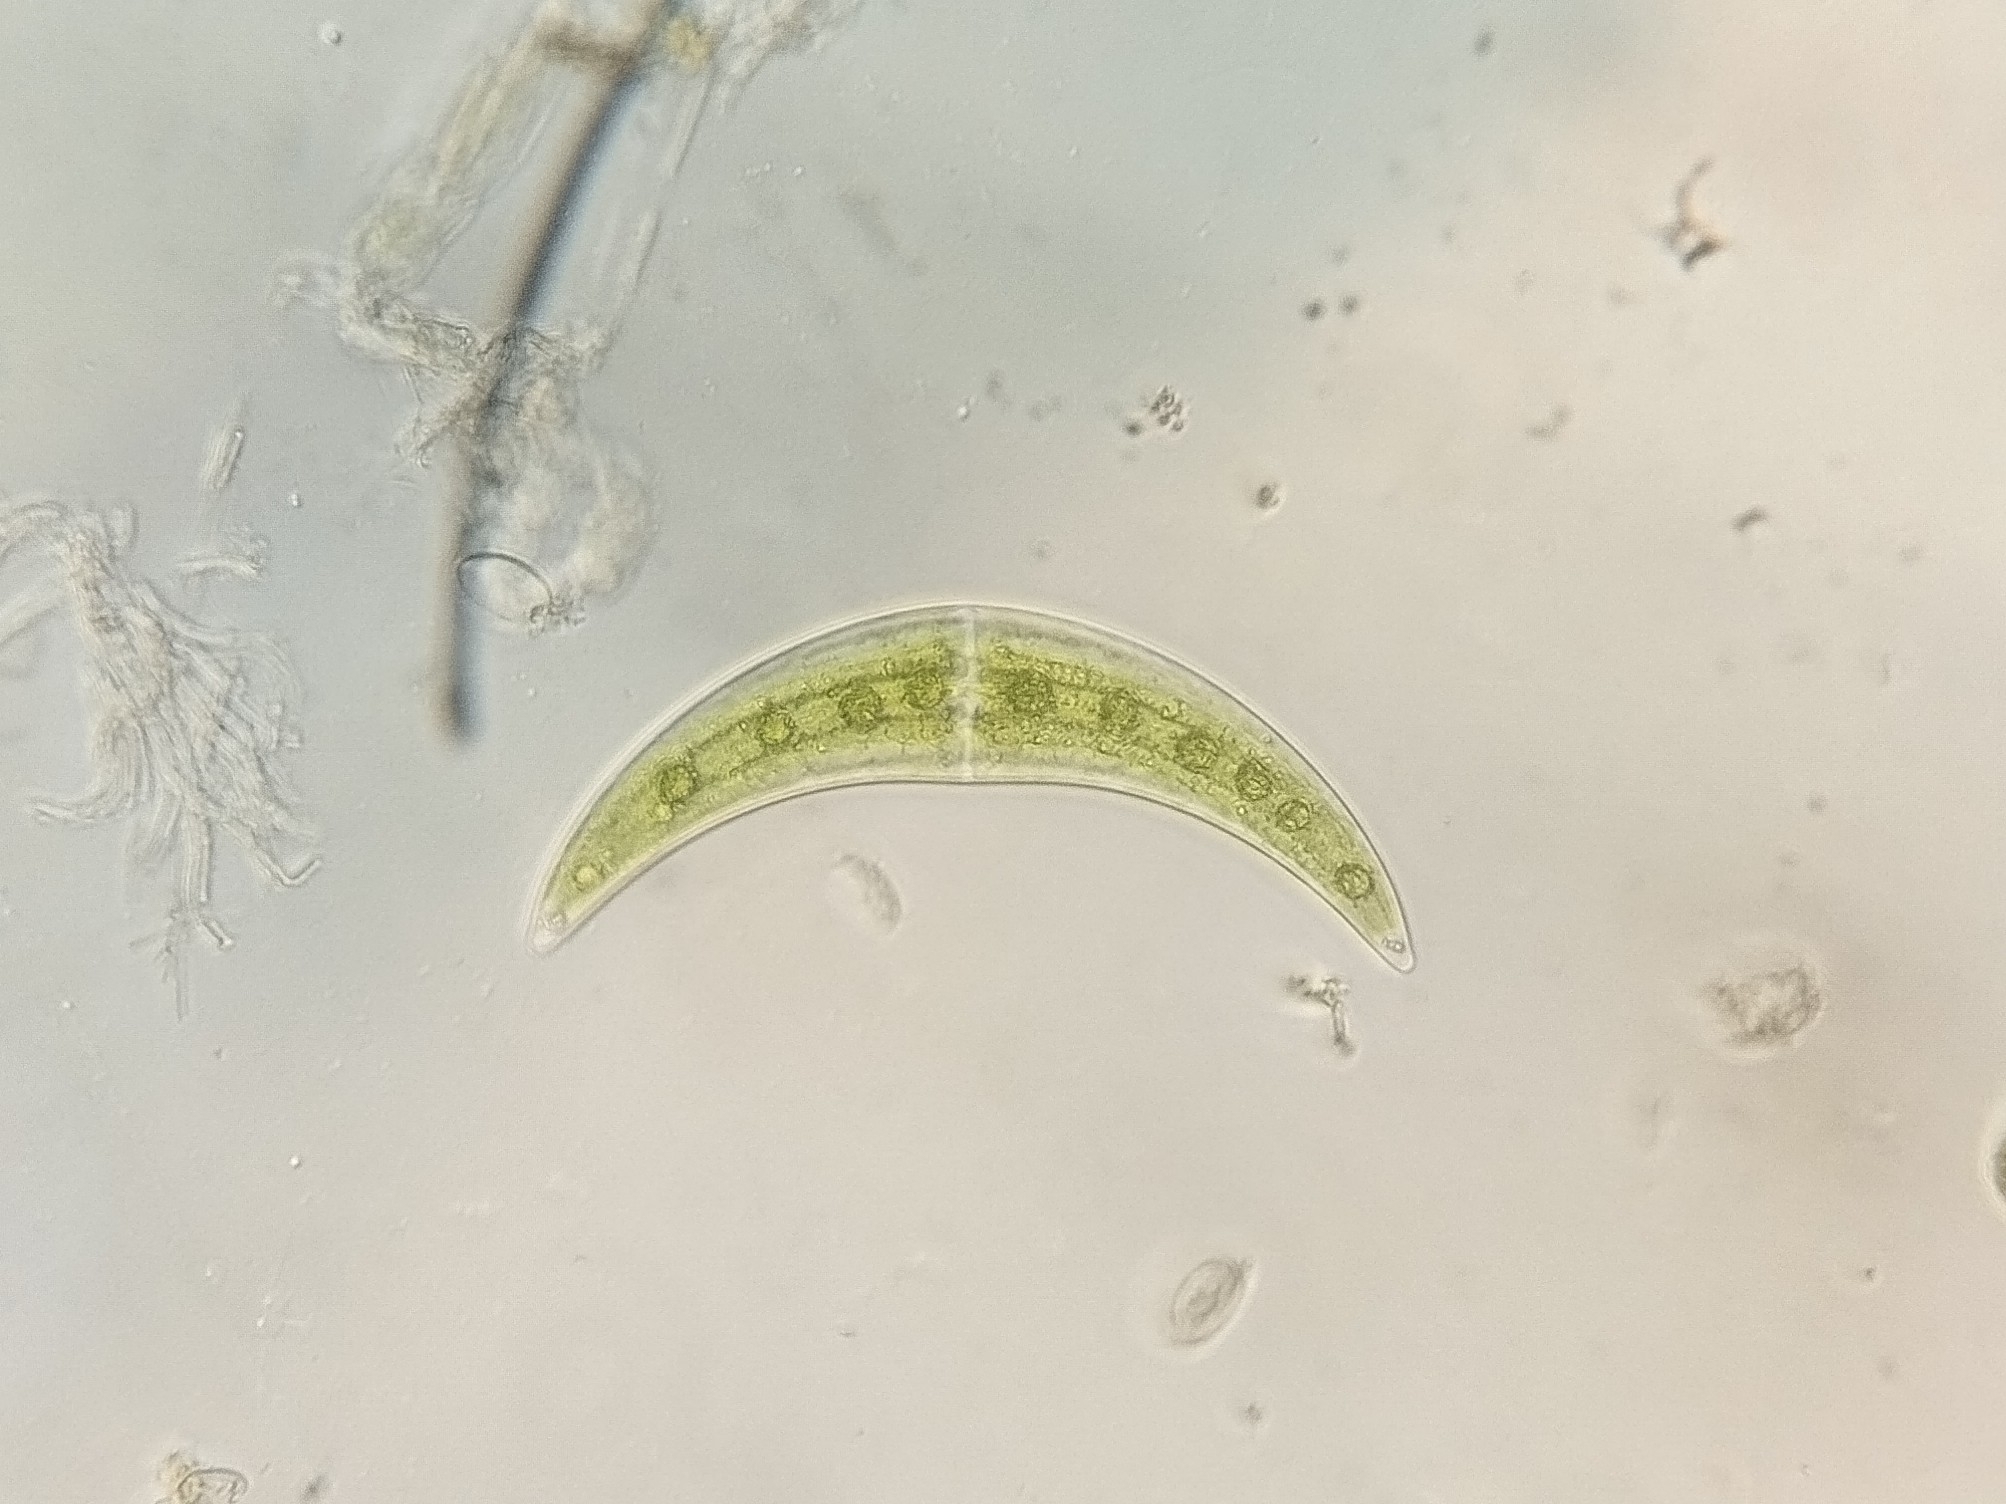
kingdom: Plantae
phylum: Charophyta
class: Zygnematophyceae
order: Zygnematales
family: Closteriaceae
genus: Closterium
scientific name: Closterium moniliferum
